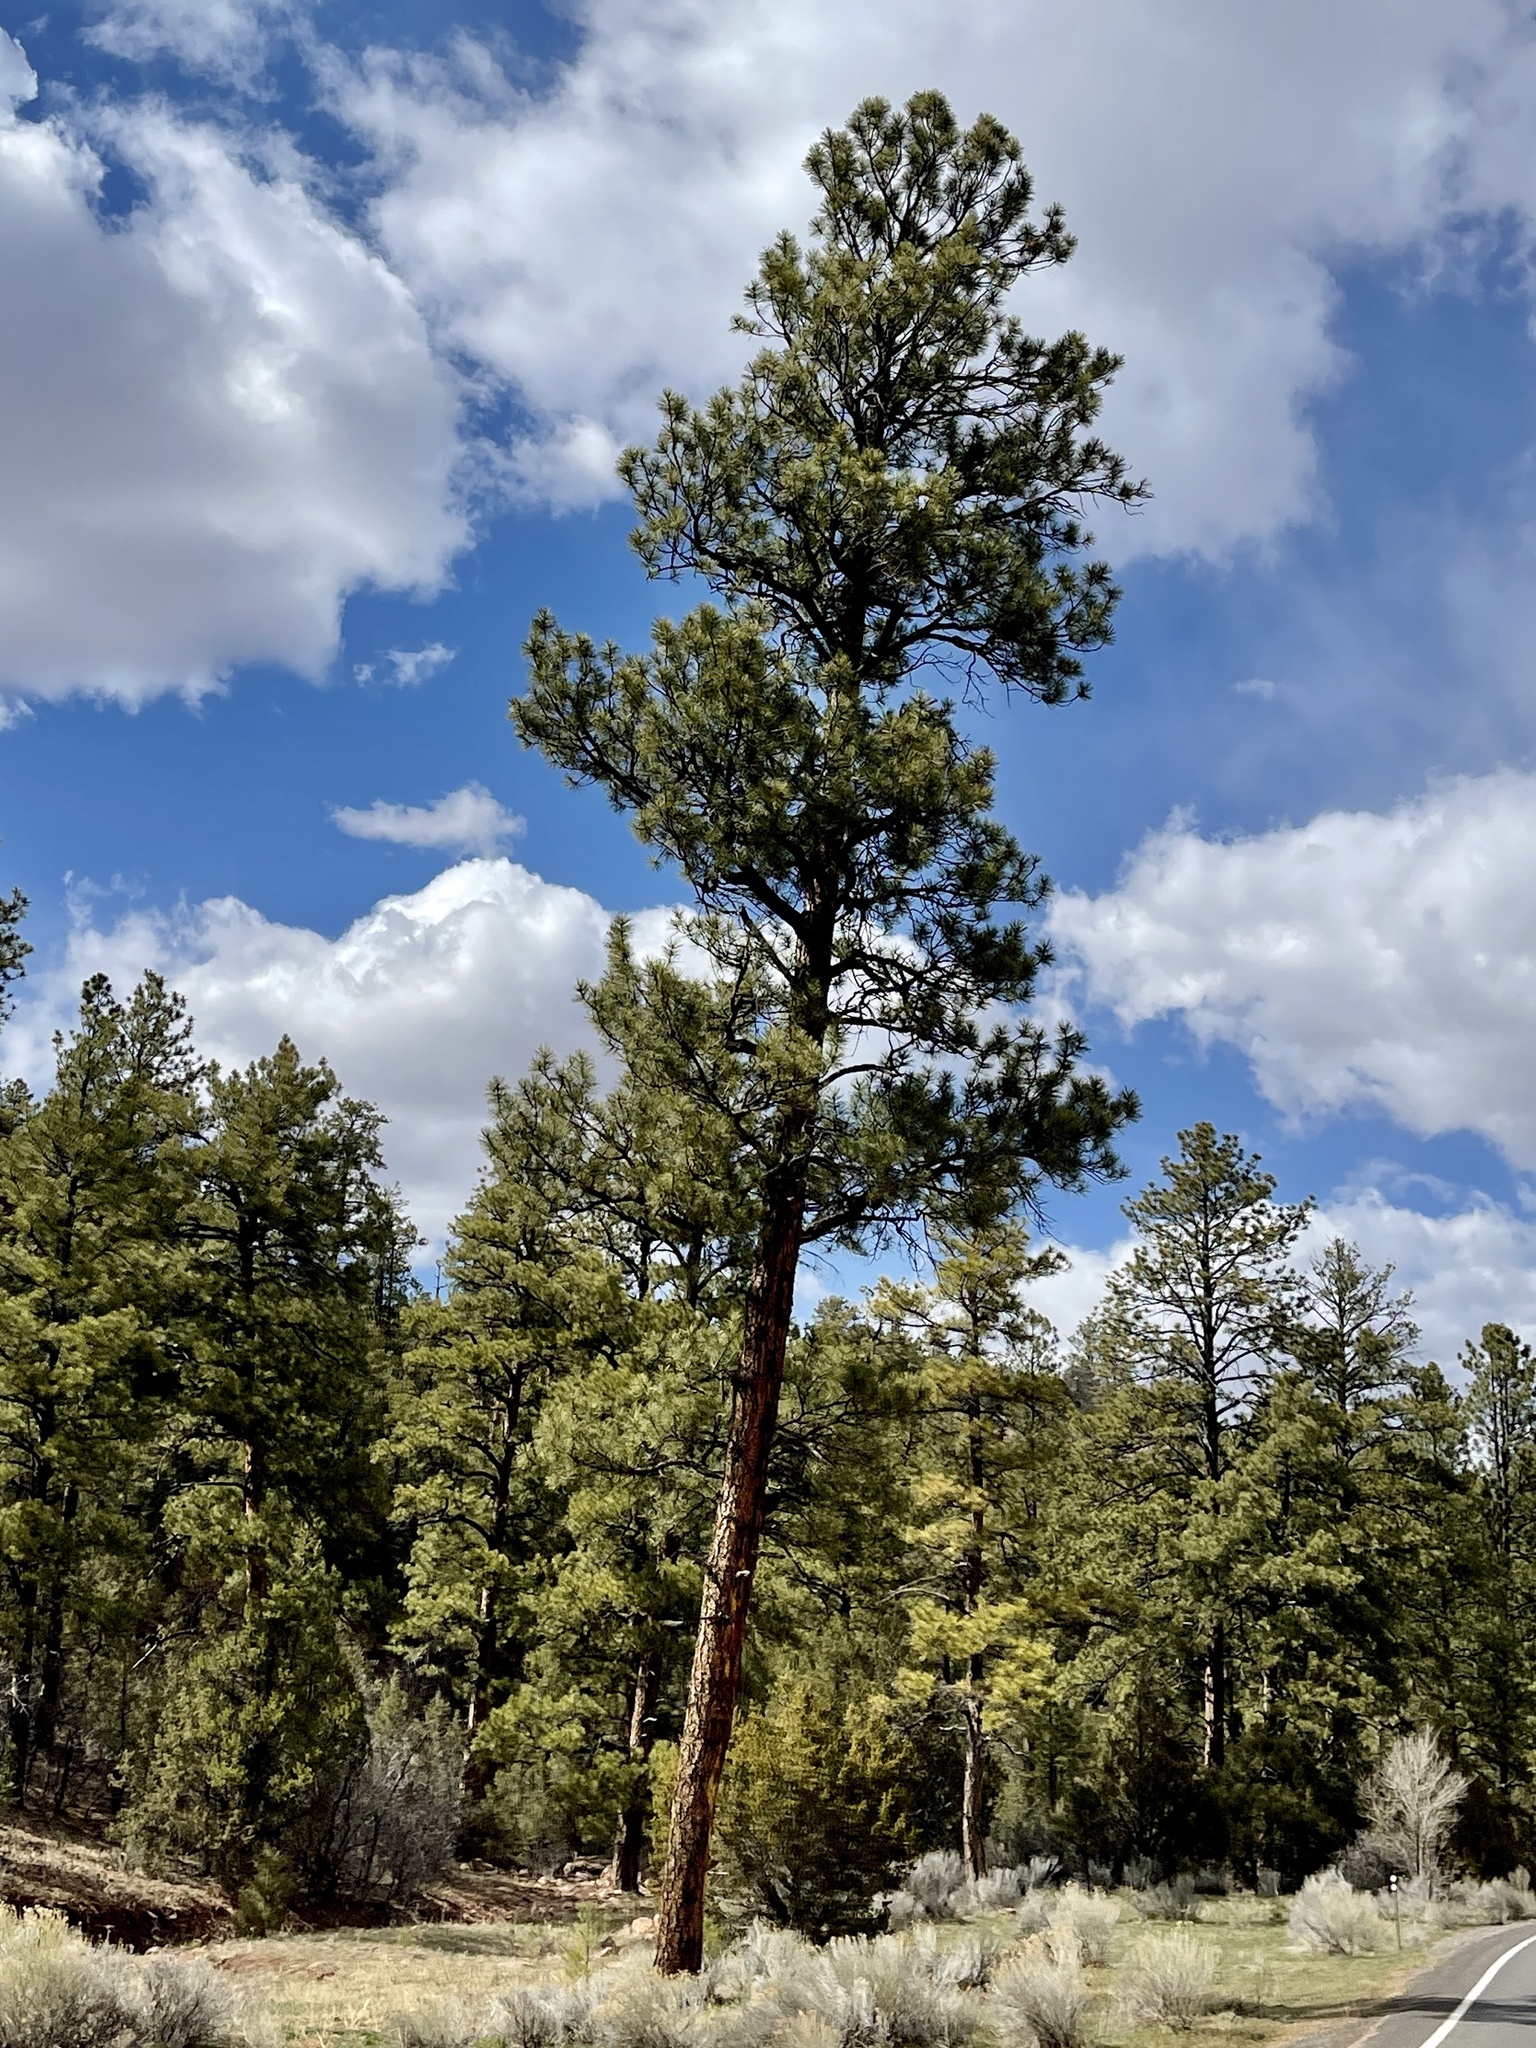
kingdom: Plantae
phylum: Tracheophyta
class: Pinopsida
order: Pinales
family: Pinaceae
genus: Pinus
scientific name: Pinus ponderosa
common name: Western yellow-pine
